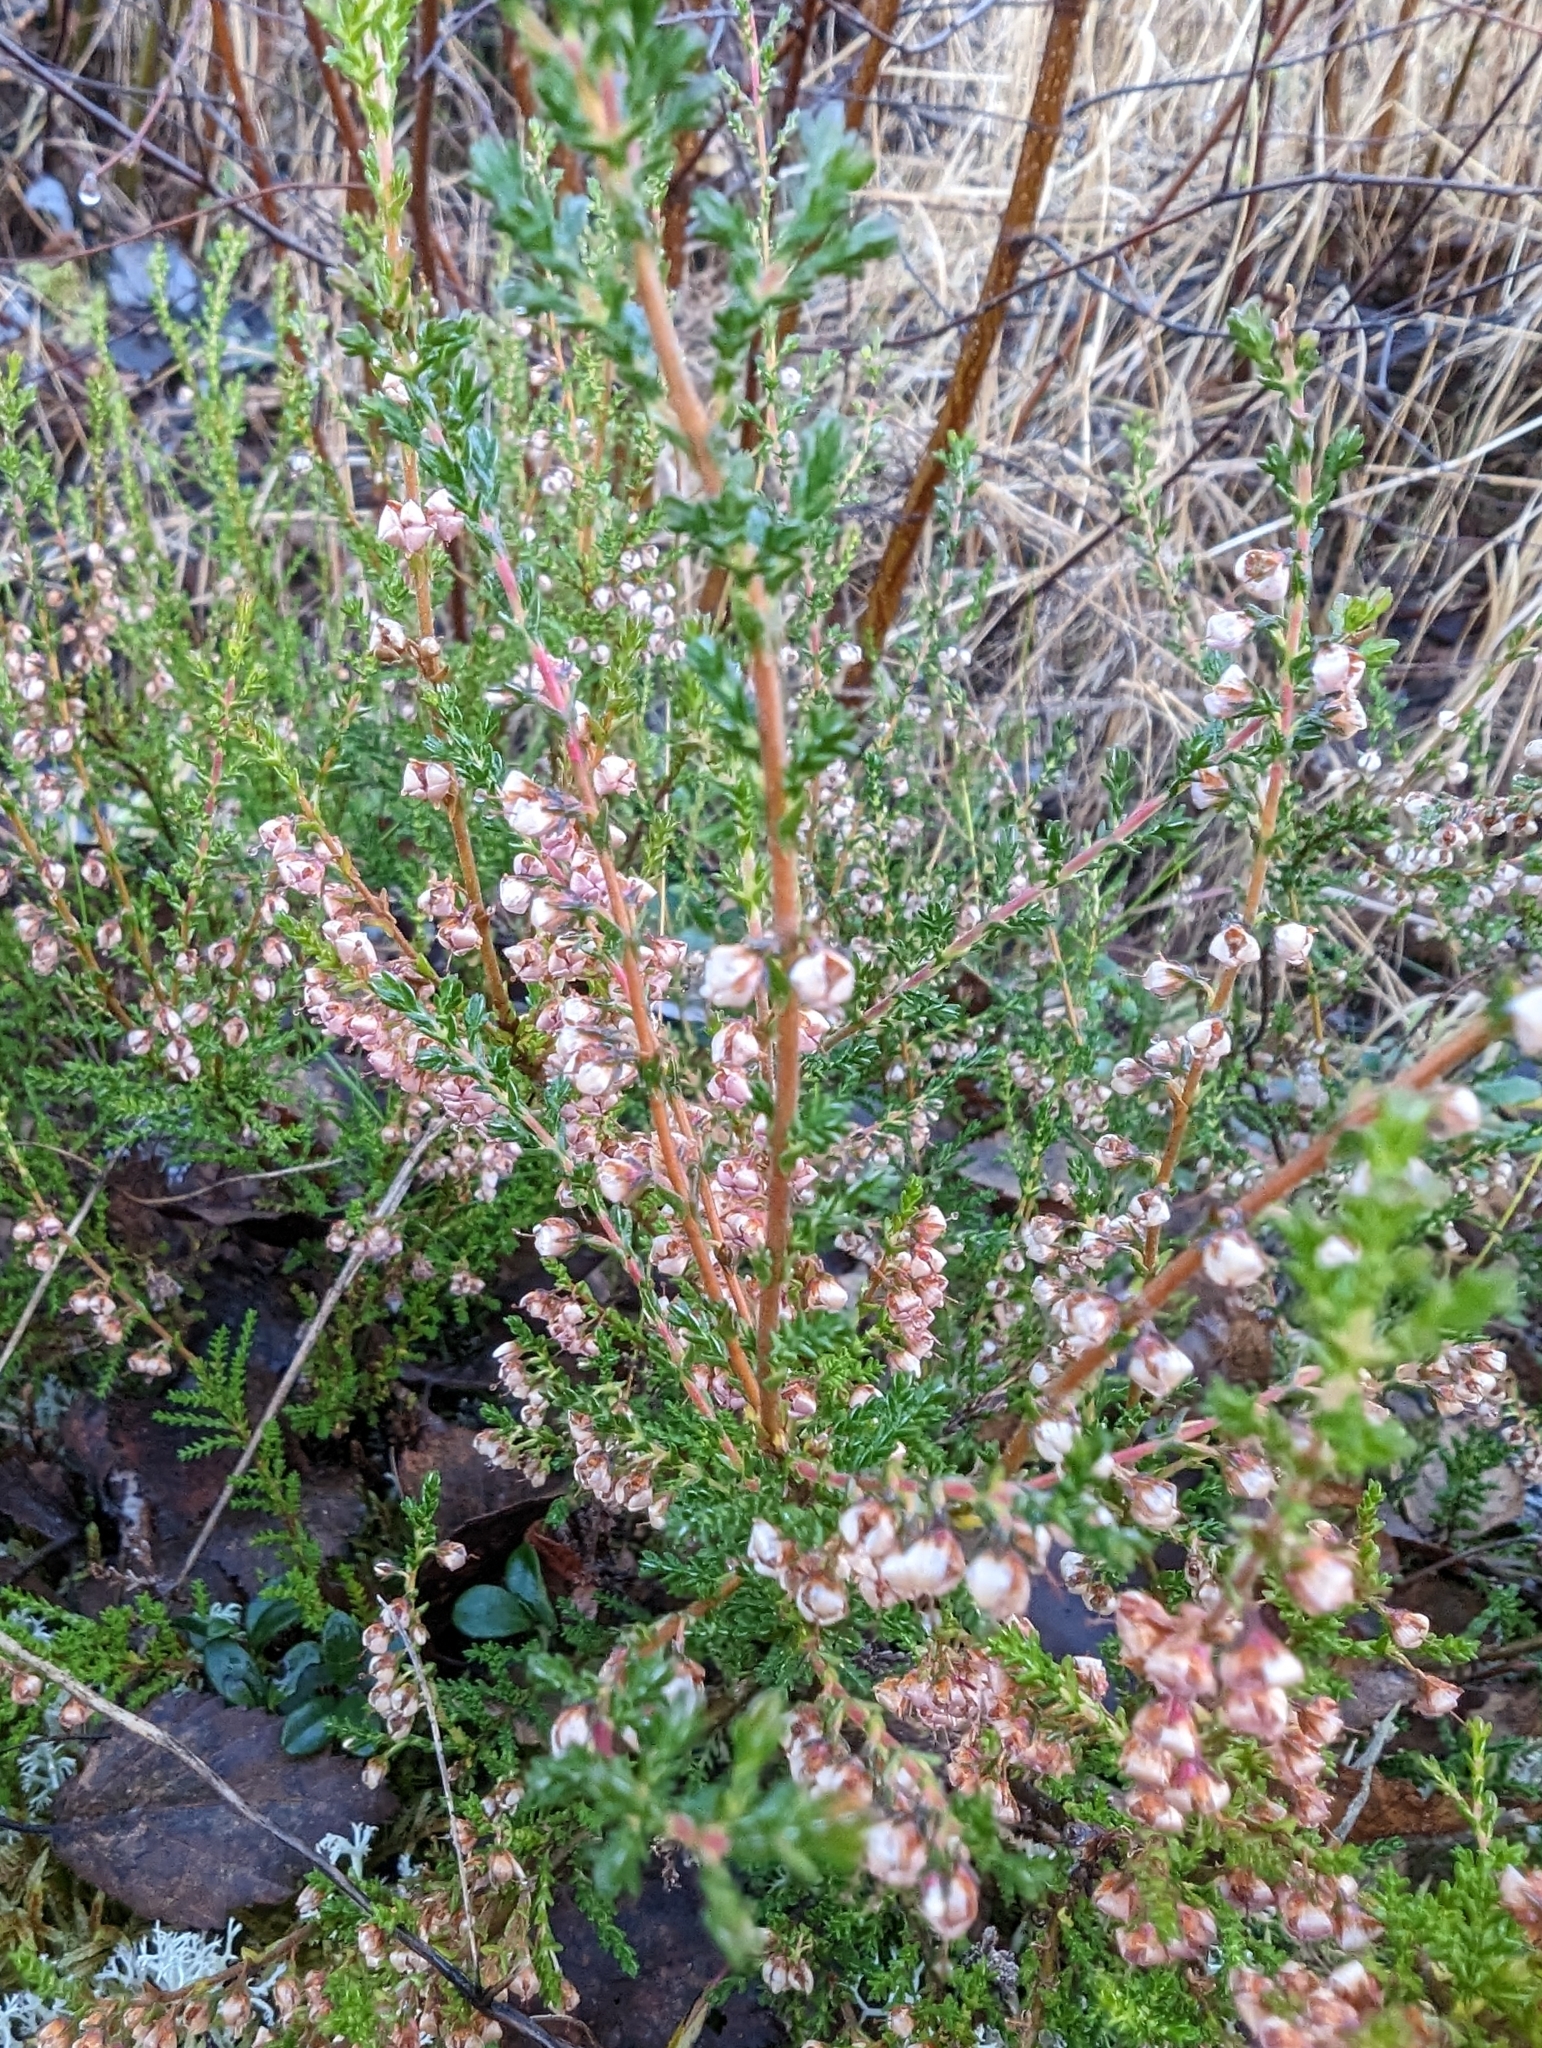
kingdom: Plantae
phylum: Tracheophyta
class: Magnoliopsida
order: Ericales
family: Ericaceae
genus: Calluna
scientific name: Calluna vulgaris
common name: Heather
